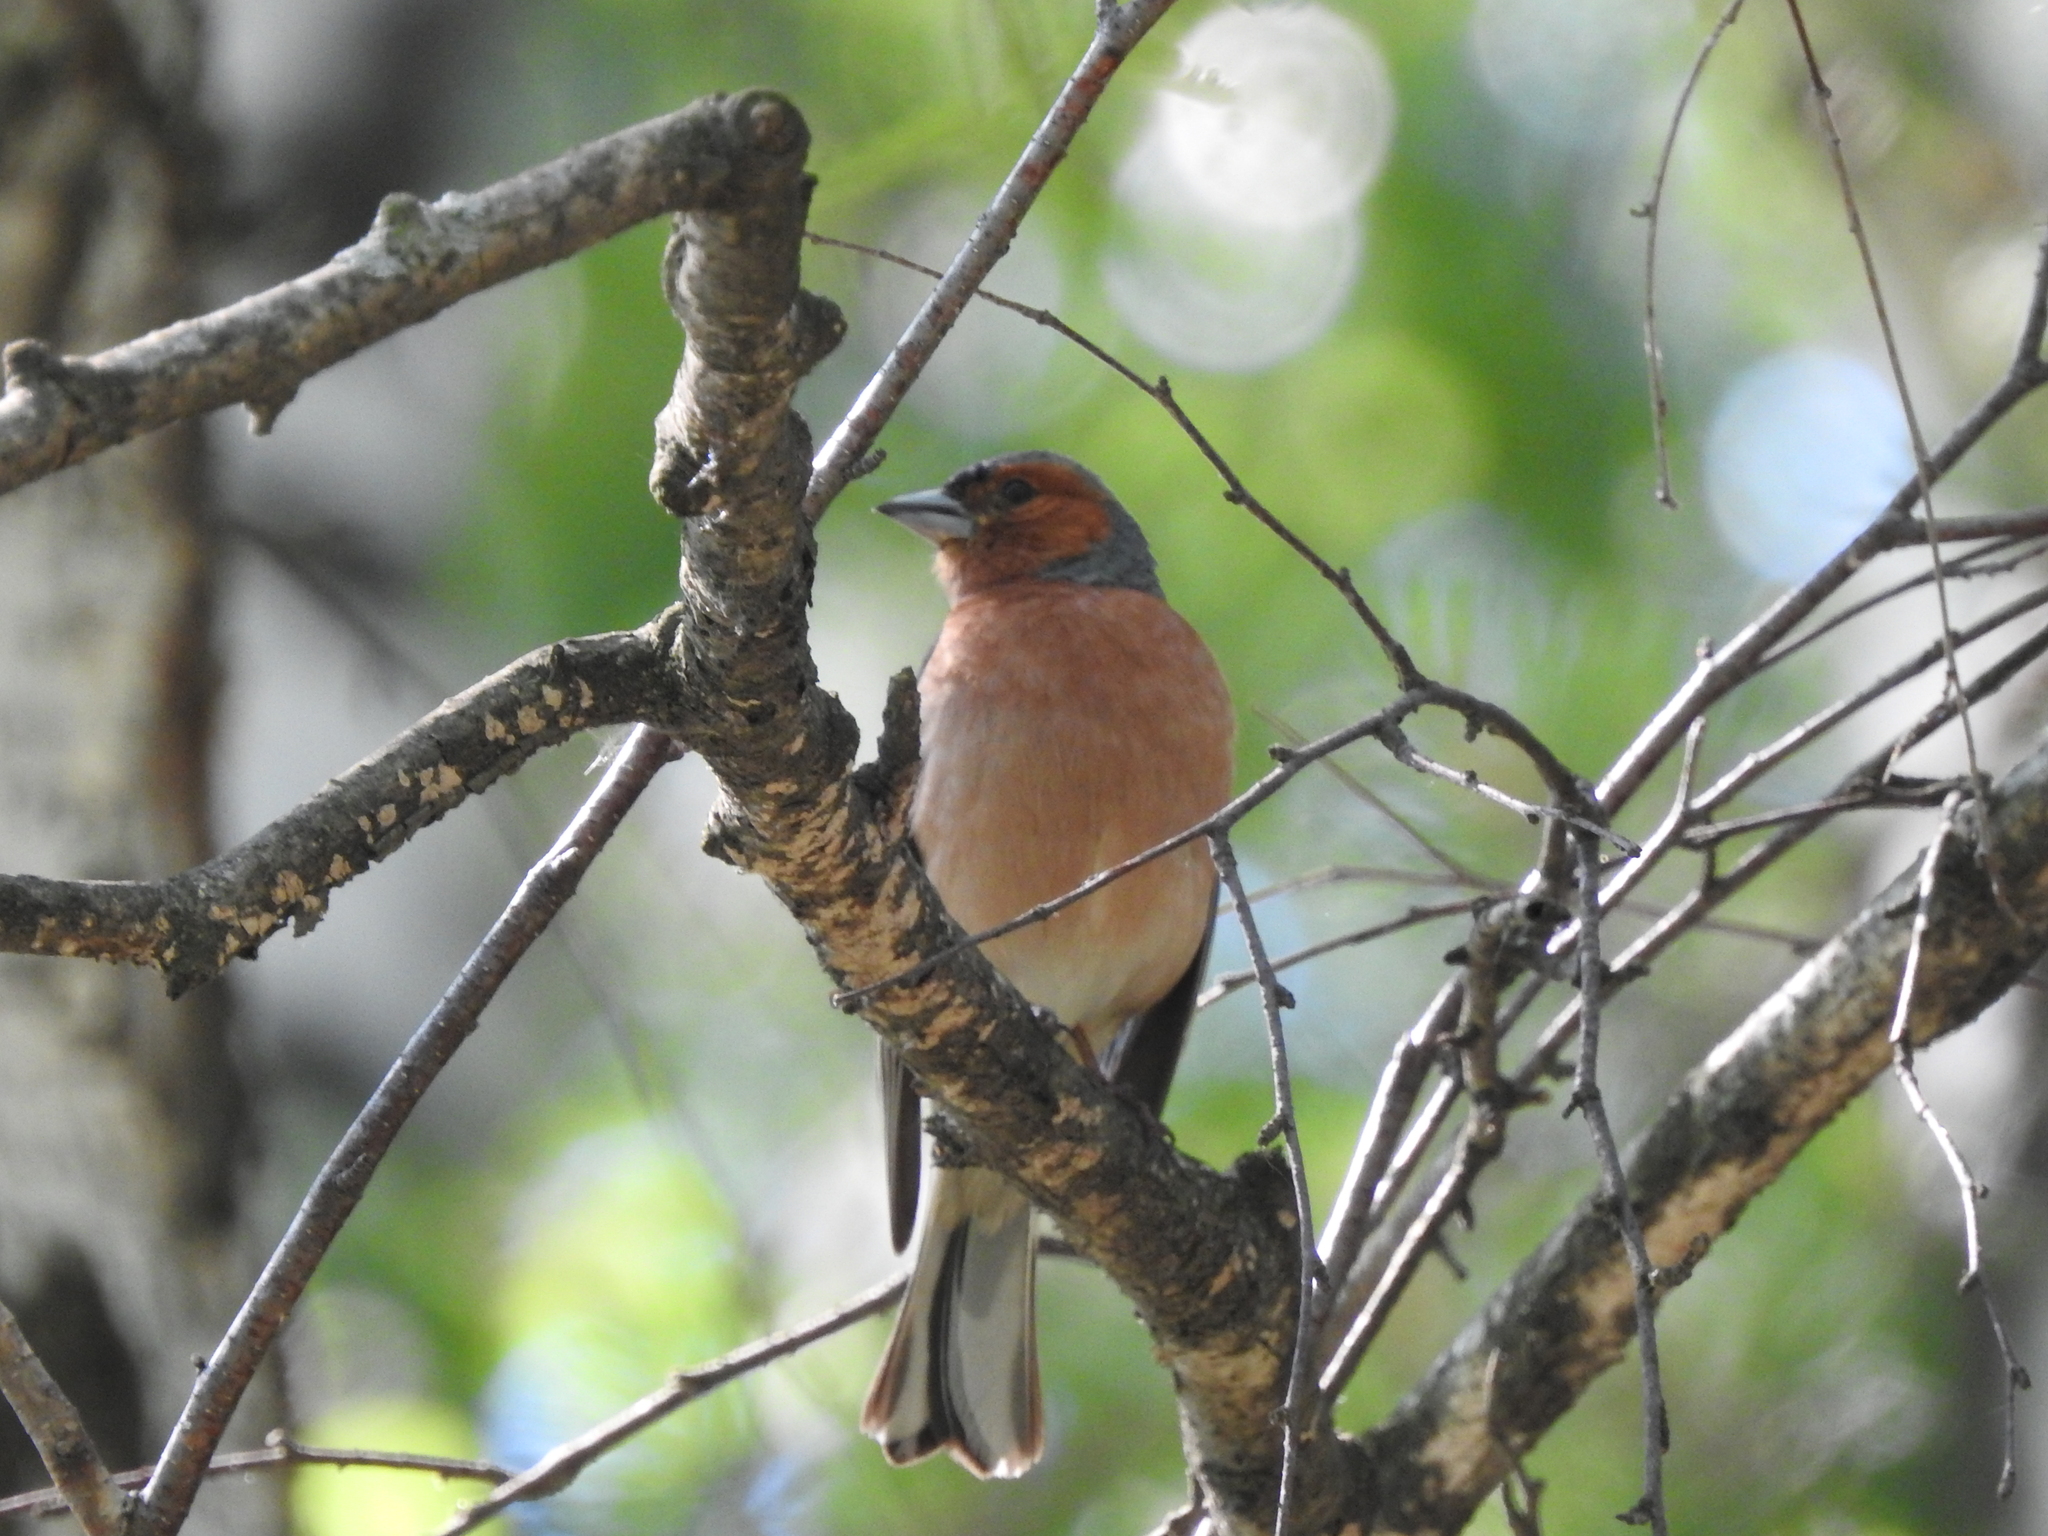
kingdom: Animalia
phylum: Chordata
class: Aves
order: Passeriformes
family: Fringillidae
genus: Fringilla
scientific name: Fringilla coelebs
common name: Common chaffinch
